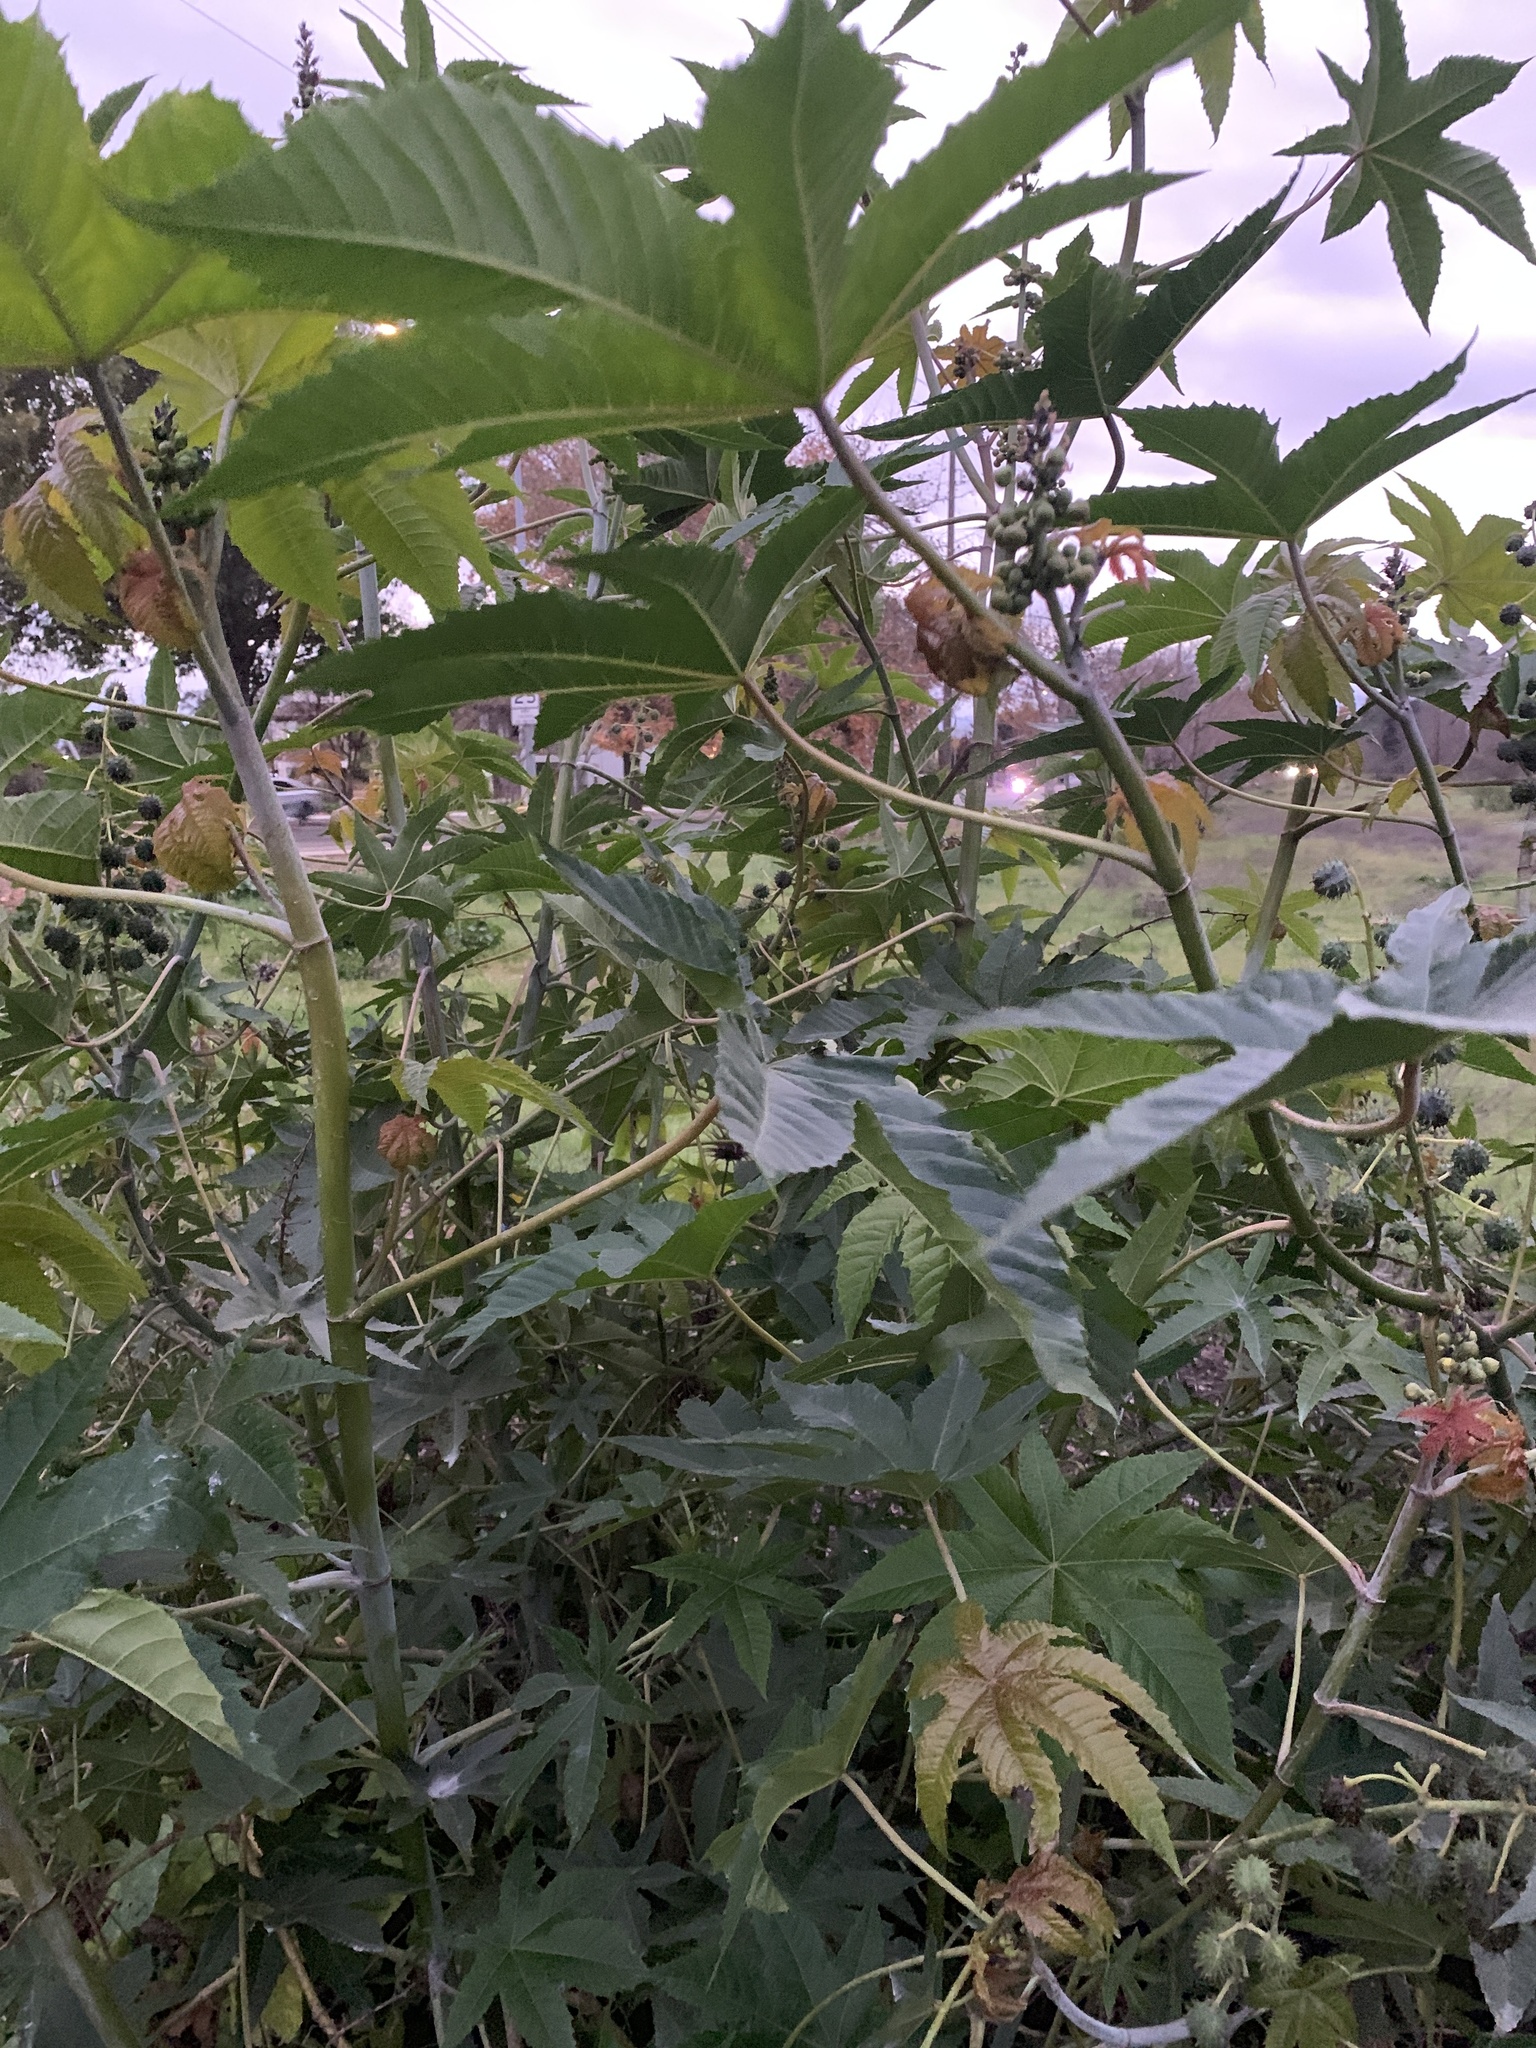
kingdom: Plantae
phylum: Tracheophyta
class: Magnoliopsida
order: Malpighiales
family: Euphorbiaceae
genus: Ricinus
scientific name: Ricinus communis
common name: Castor-oil-plant
